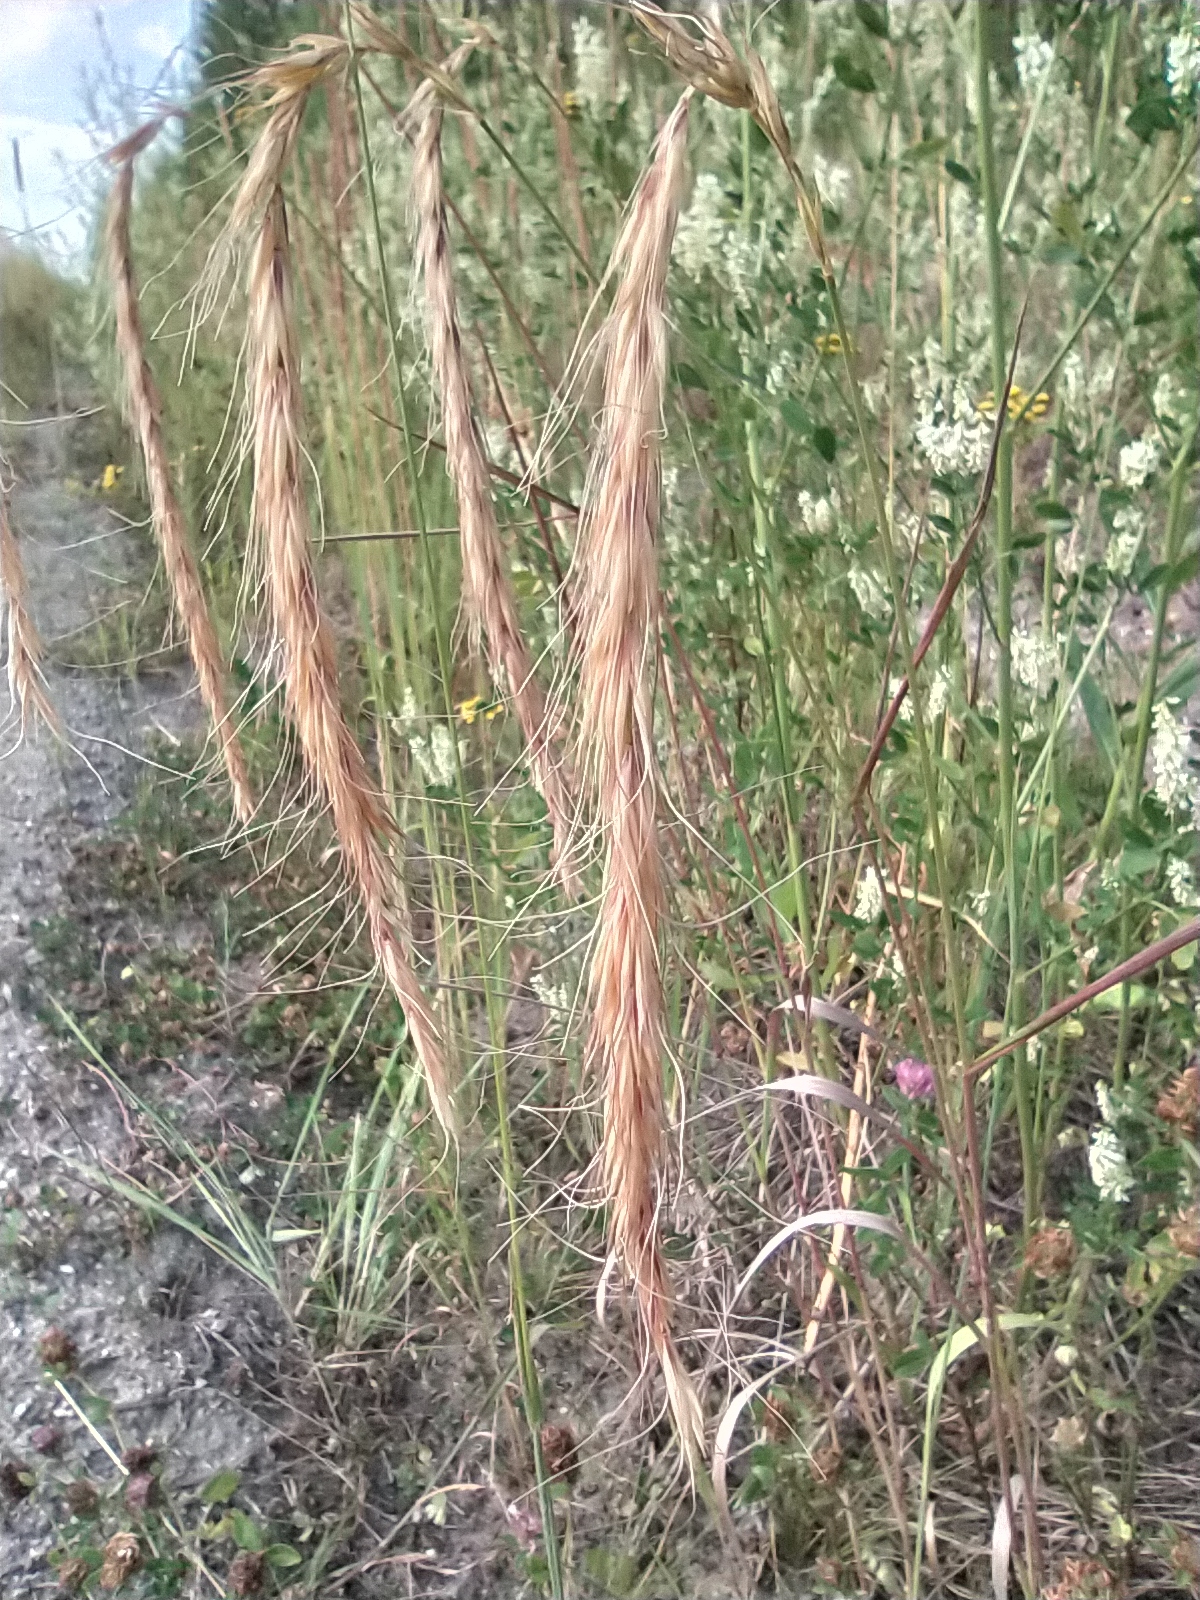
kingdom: Plantae
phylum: Tracheophyta
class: Liliopsida
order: Poales
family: Poaceae
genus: Elymus
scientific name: Elymus sibiricus
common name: Siberian wildrye
